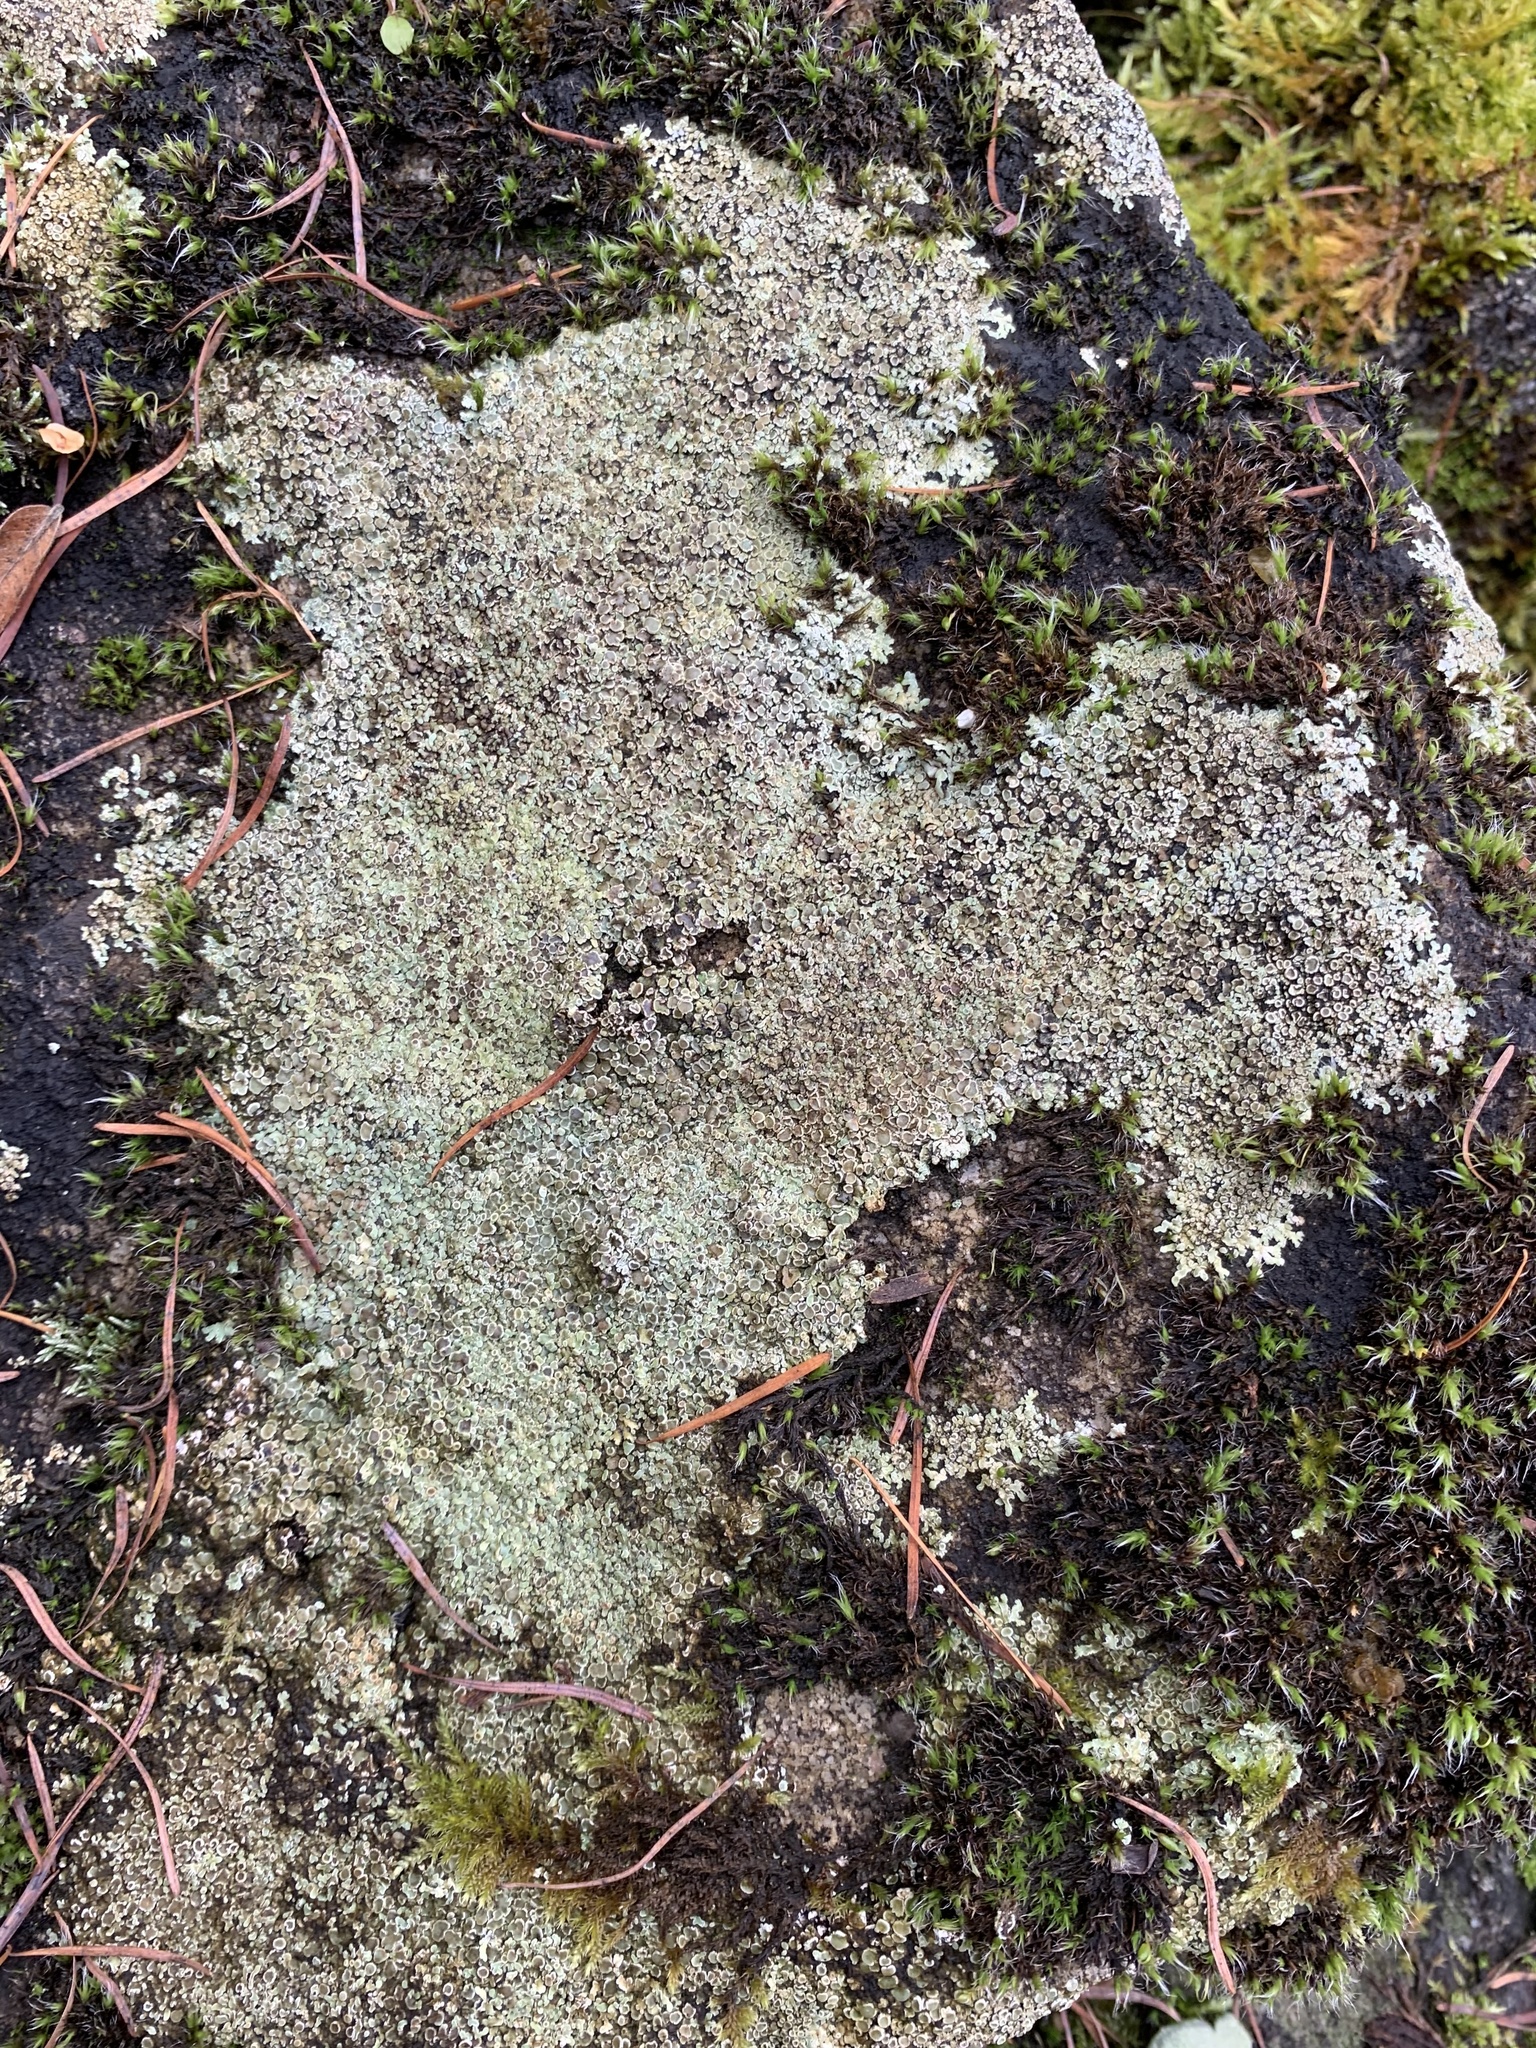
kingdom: Fungi
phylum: Ascomycota
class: Lecanoromycetes
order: Lecanorales
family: Lecanoraceae
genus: Protoparmeliopsis
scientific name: Protoparmeliopsis muralis
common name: Stonewall rim lichen
